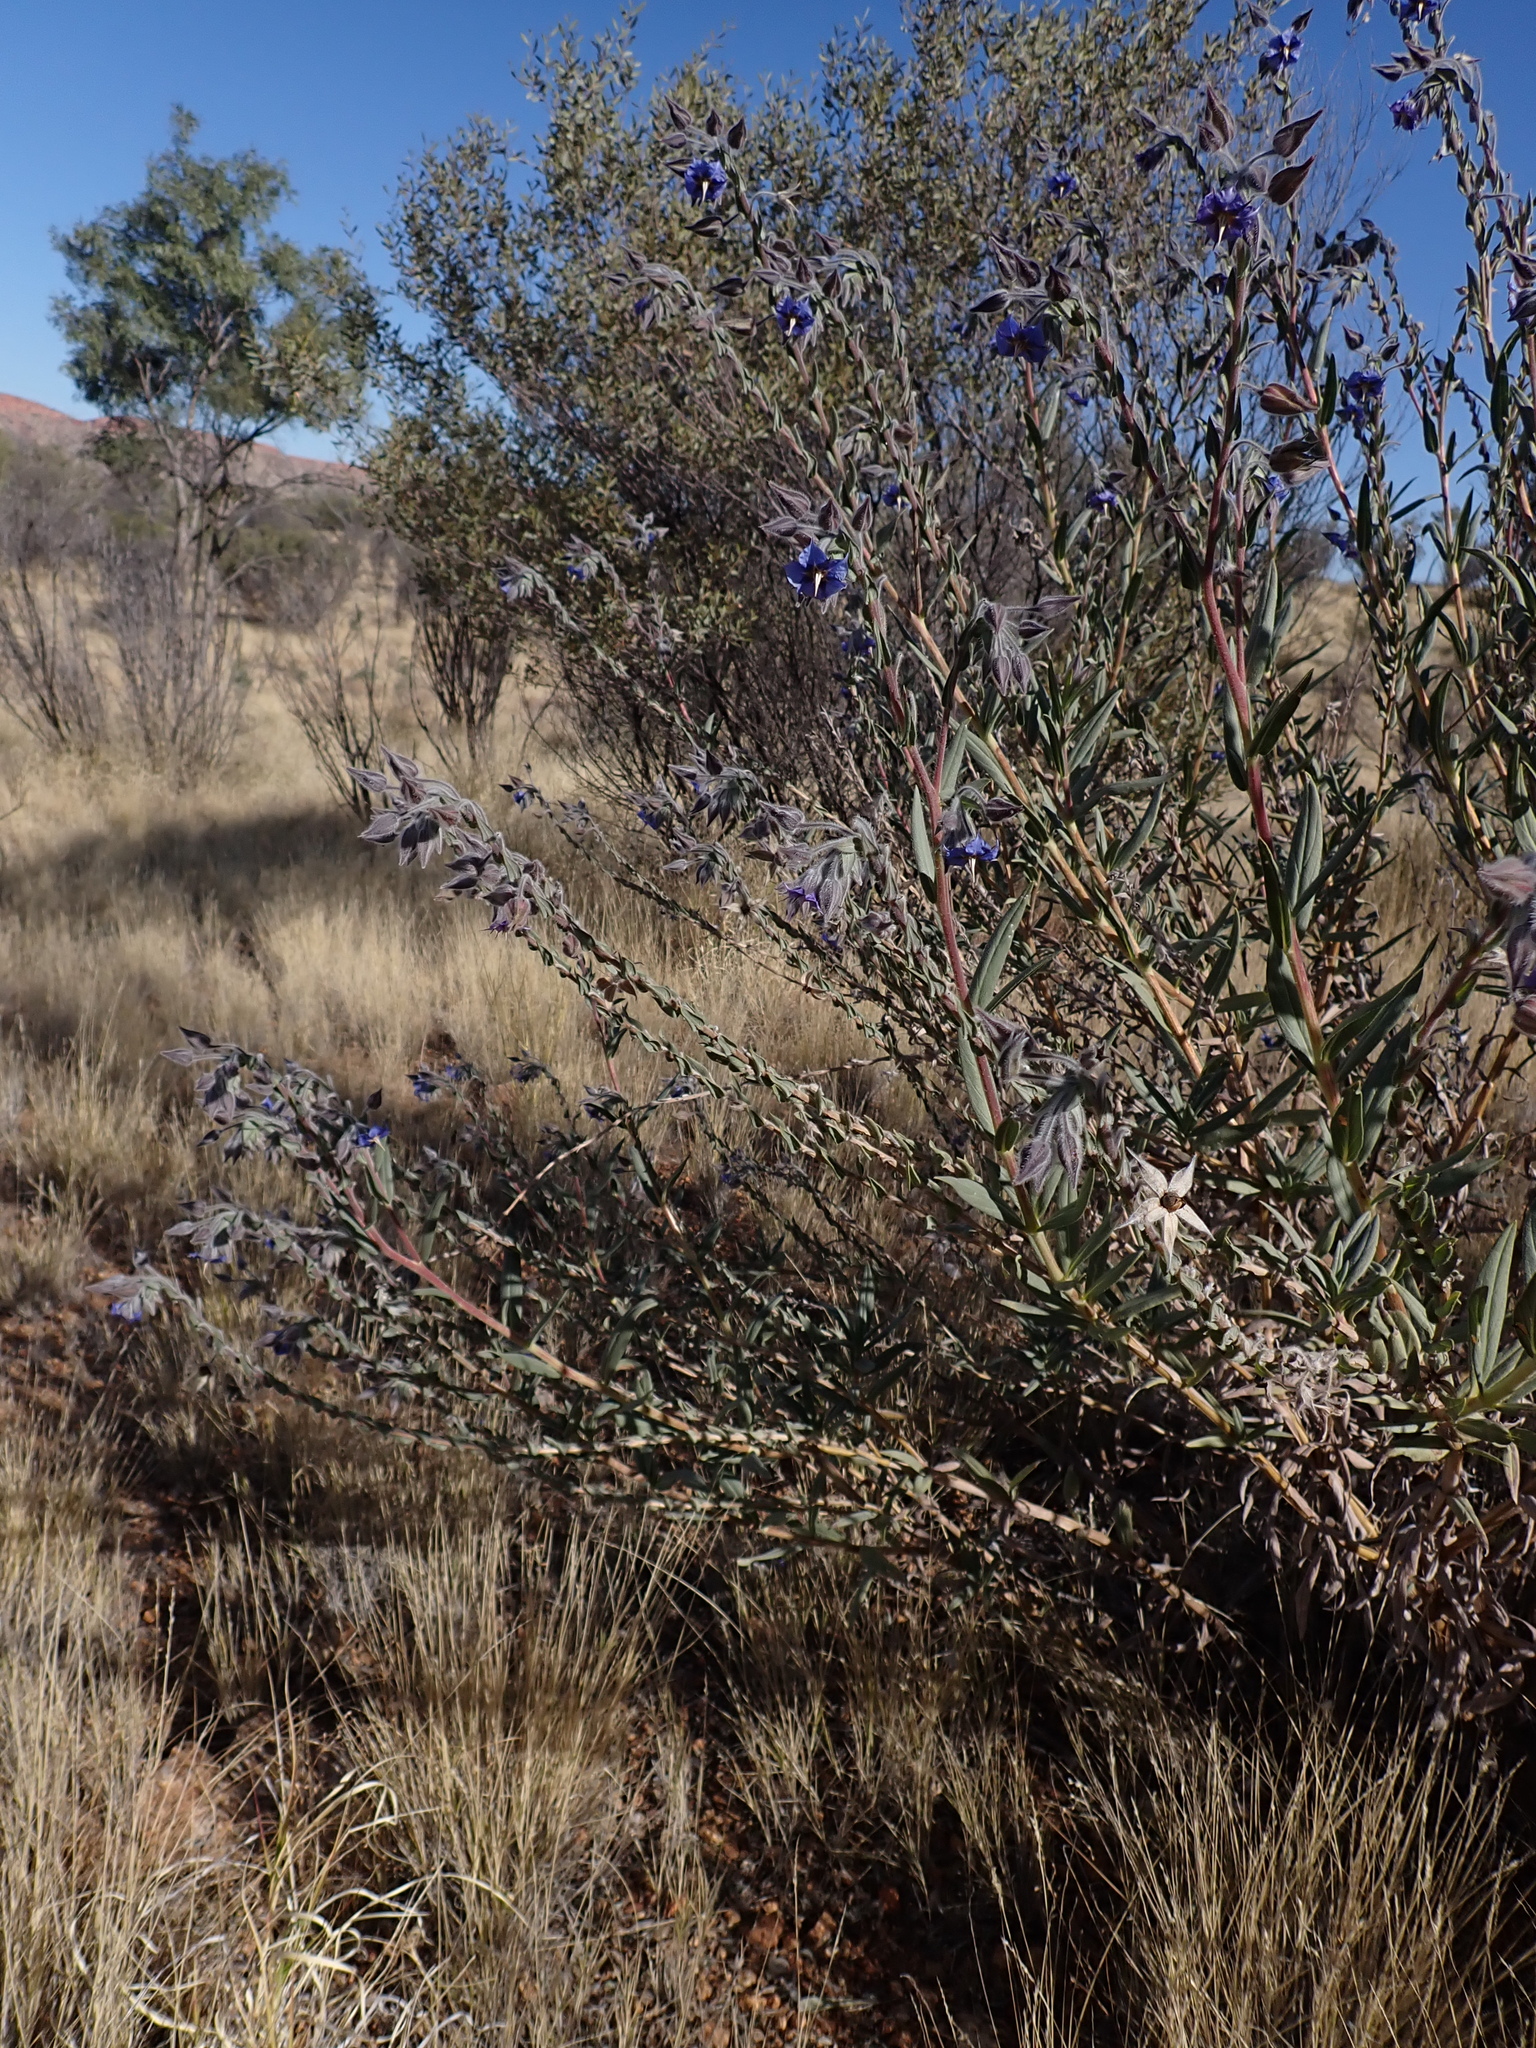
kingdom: Plantae
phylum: Tracheophyta
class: Magnoliopsida
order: Boraginales
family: Boraginaceae
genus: Trichodesma
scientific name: Trichodesma zeylanicum
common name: Camelbush
